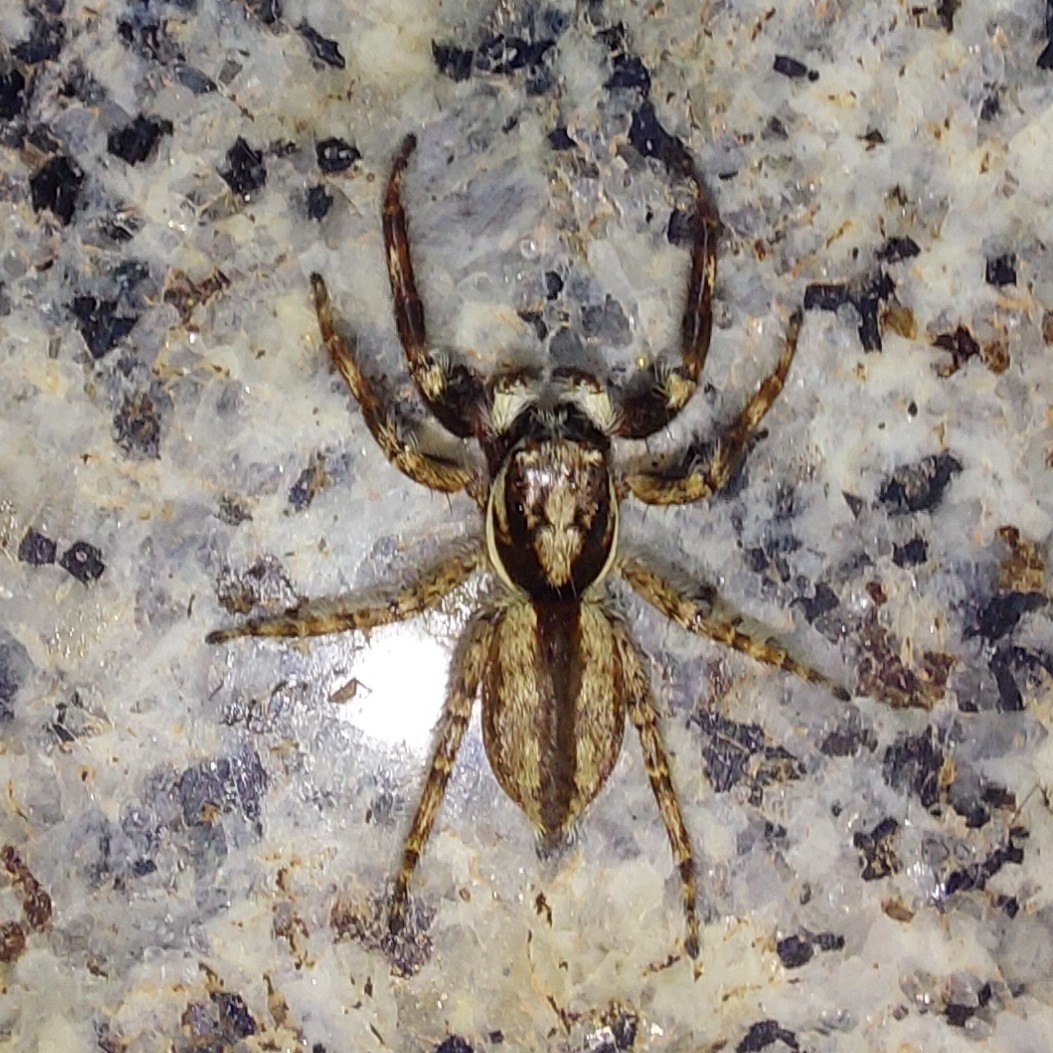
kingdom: Animalia
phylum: Arthropoda
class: Arachnida
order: Araneae
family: Salticidae
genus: Menemerus
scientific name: Menemerus bivittatus
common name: Gray wall jumper
